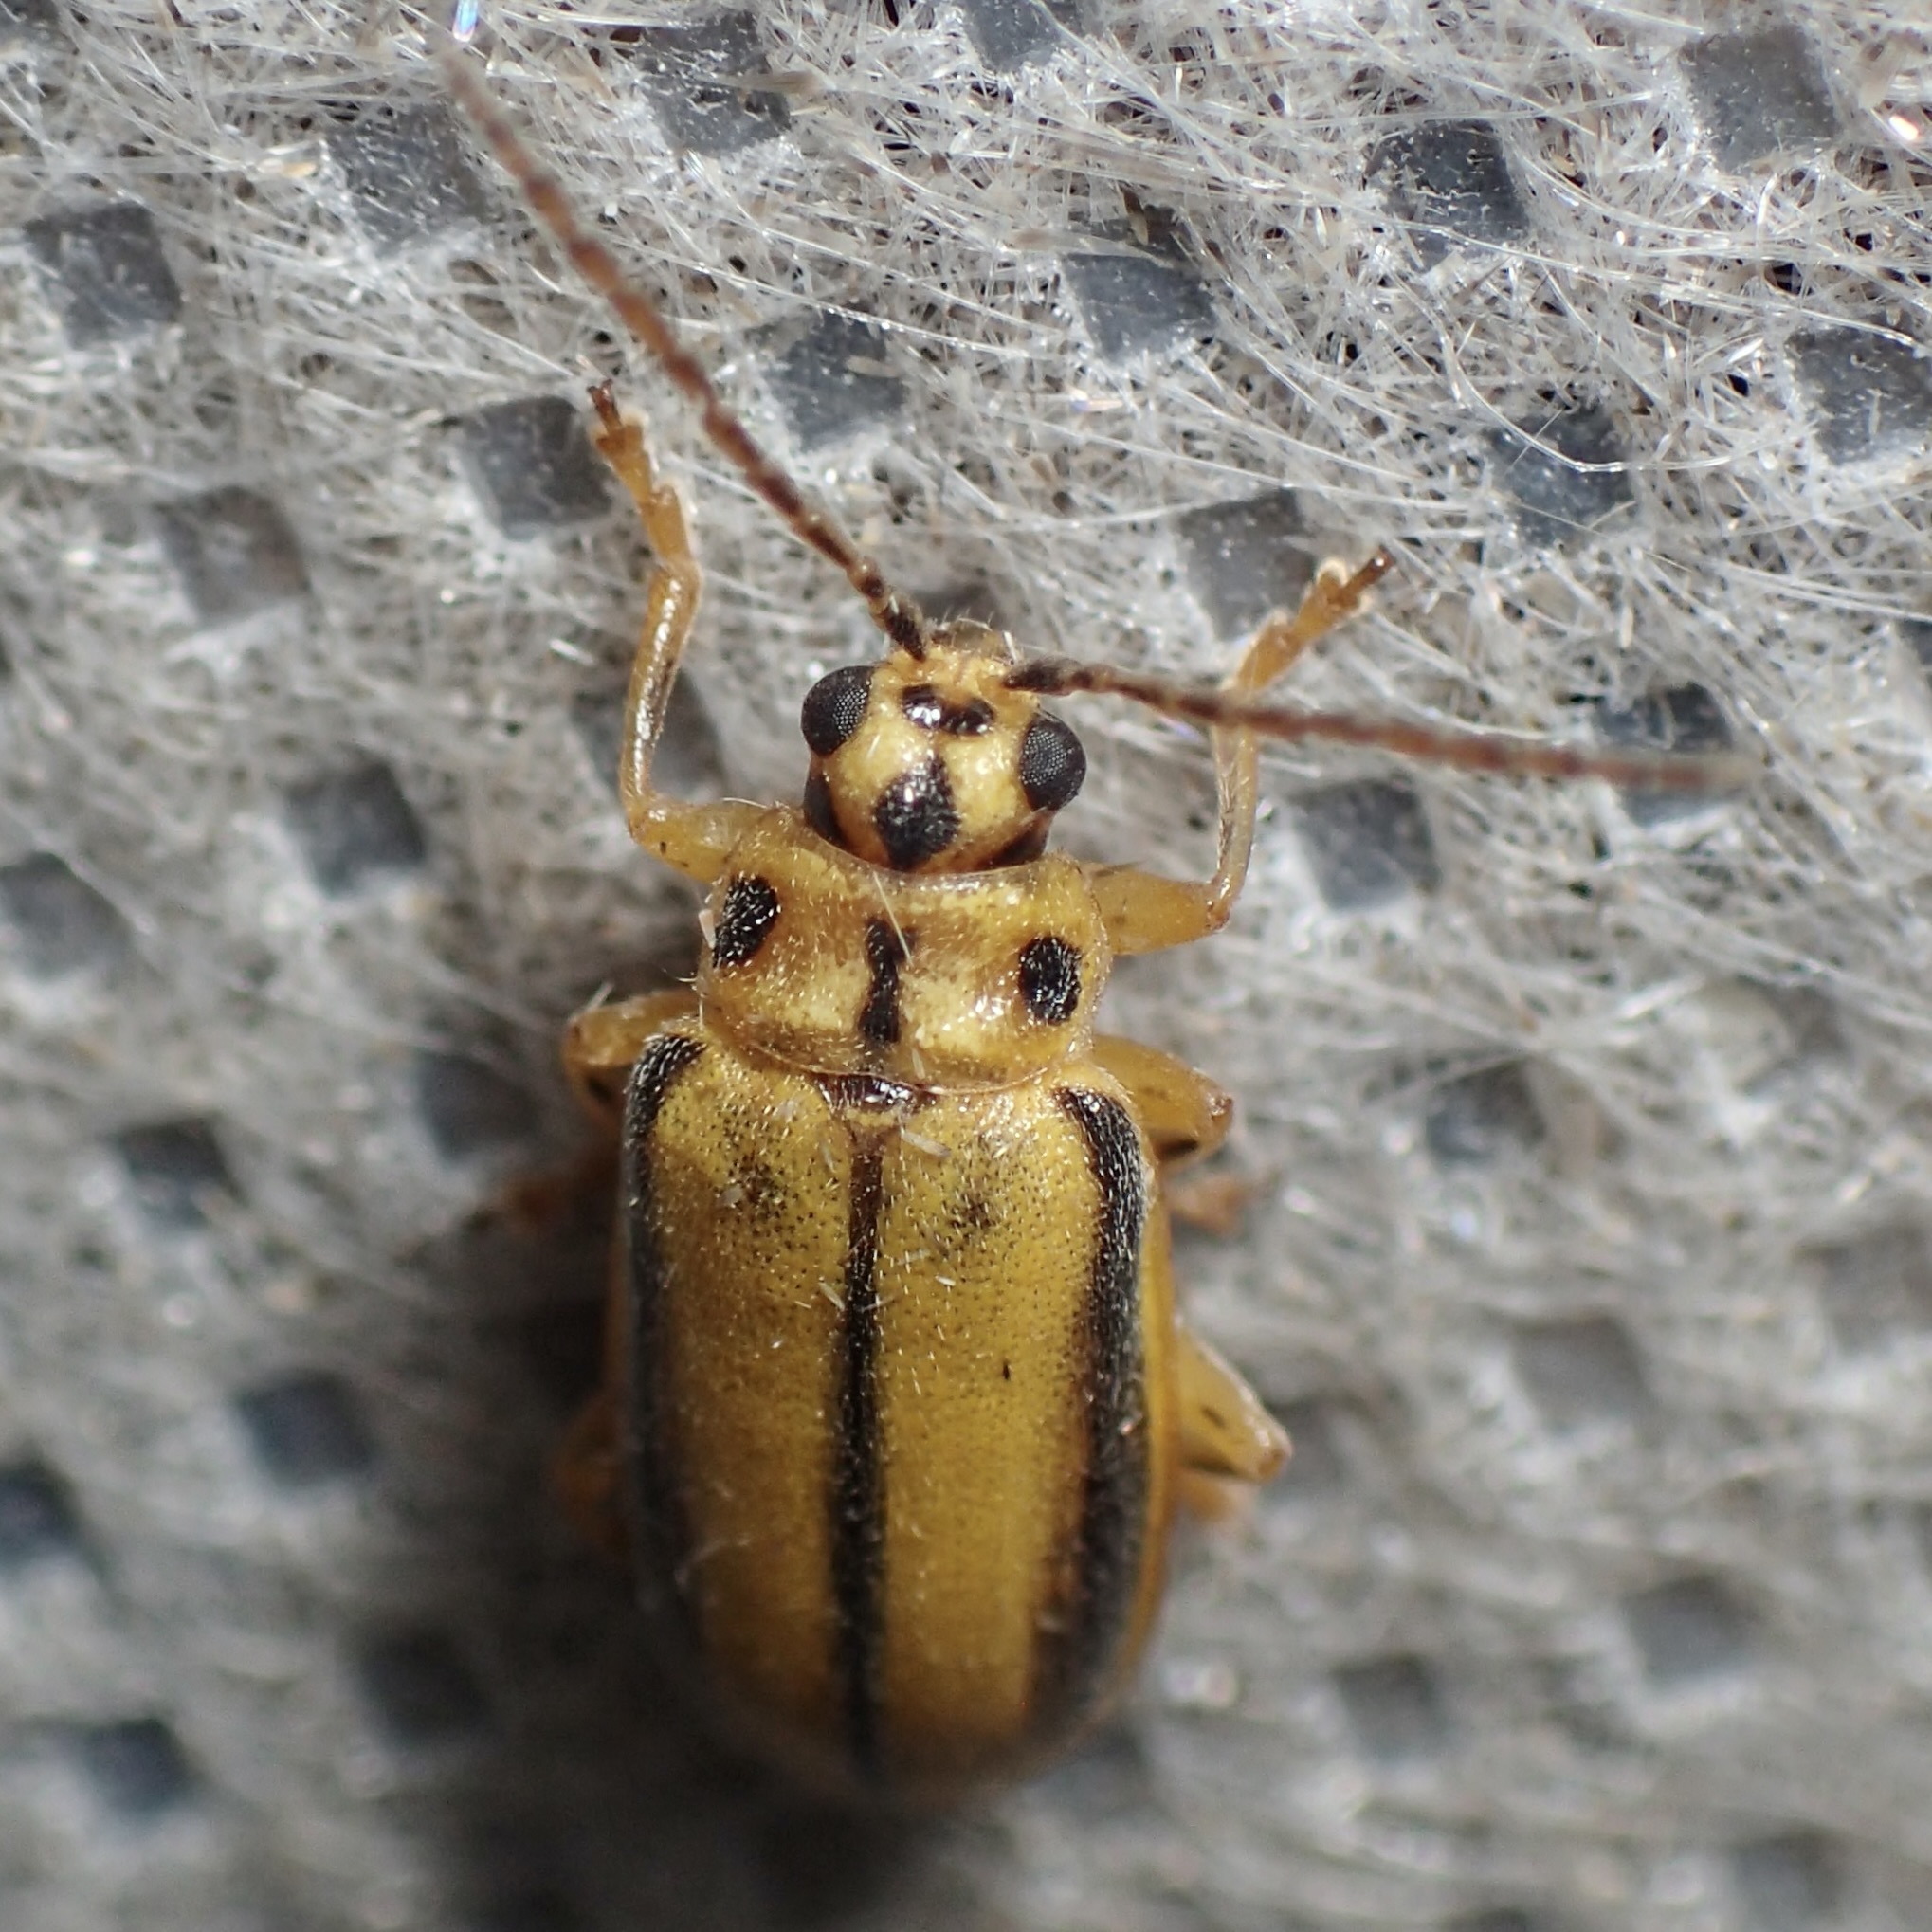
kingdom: Animalia
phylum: Arthropoda
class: Insecta
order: Coleoptera
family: Chrysomelidae
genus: Xanthogaleruca
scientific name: Xanthogaleruca luteola
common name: Elm leaf beetle
